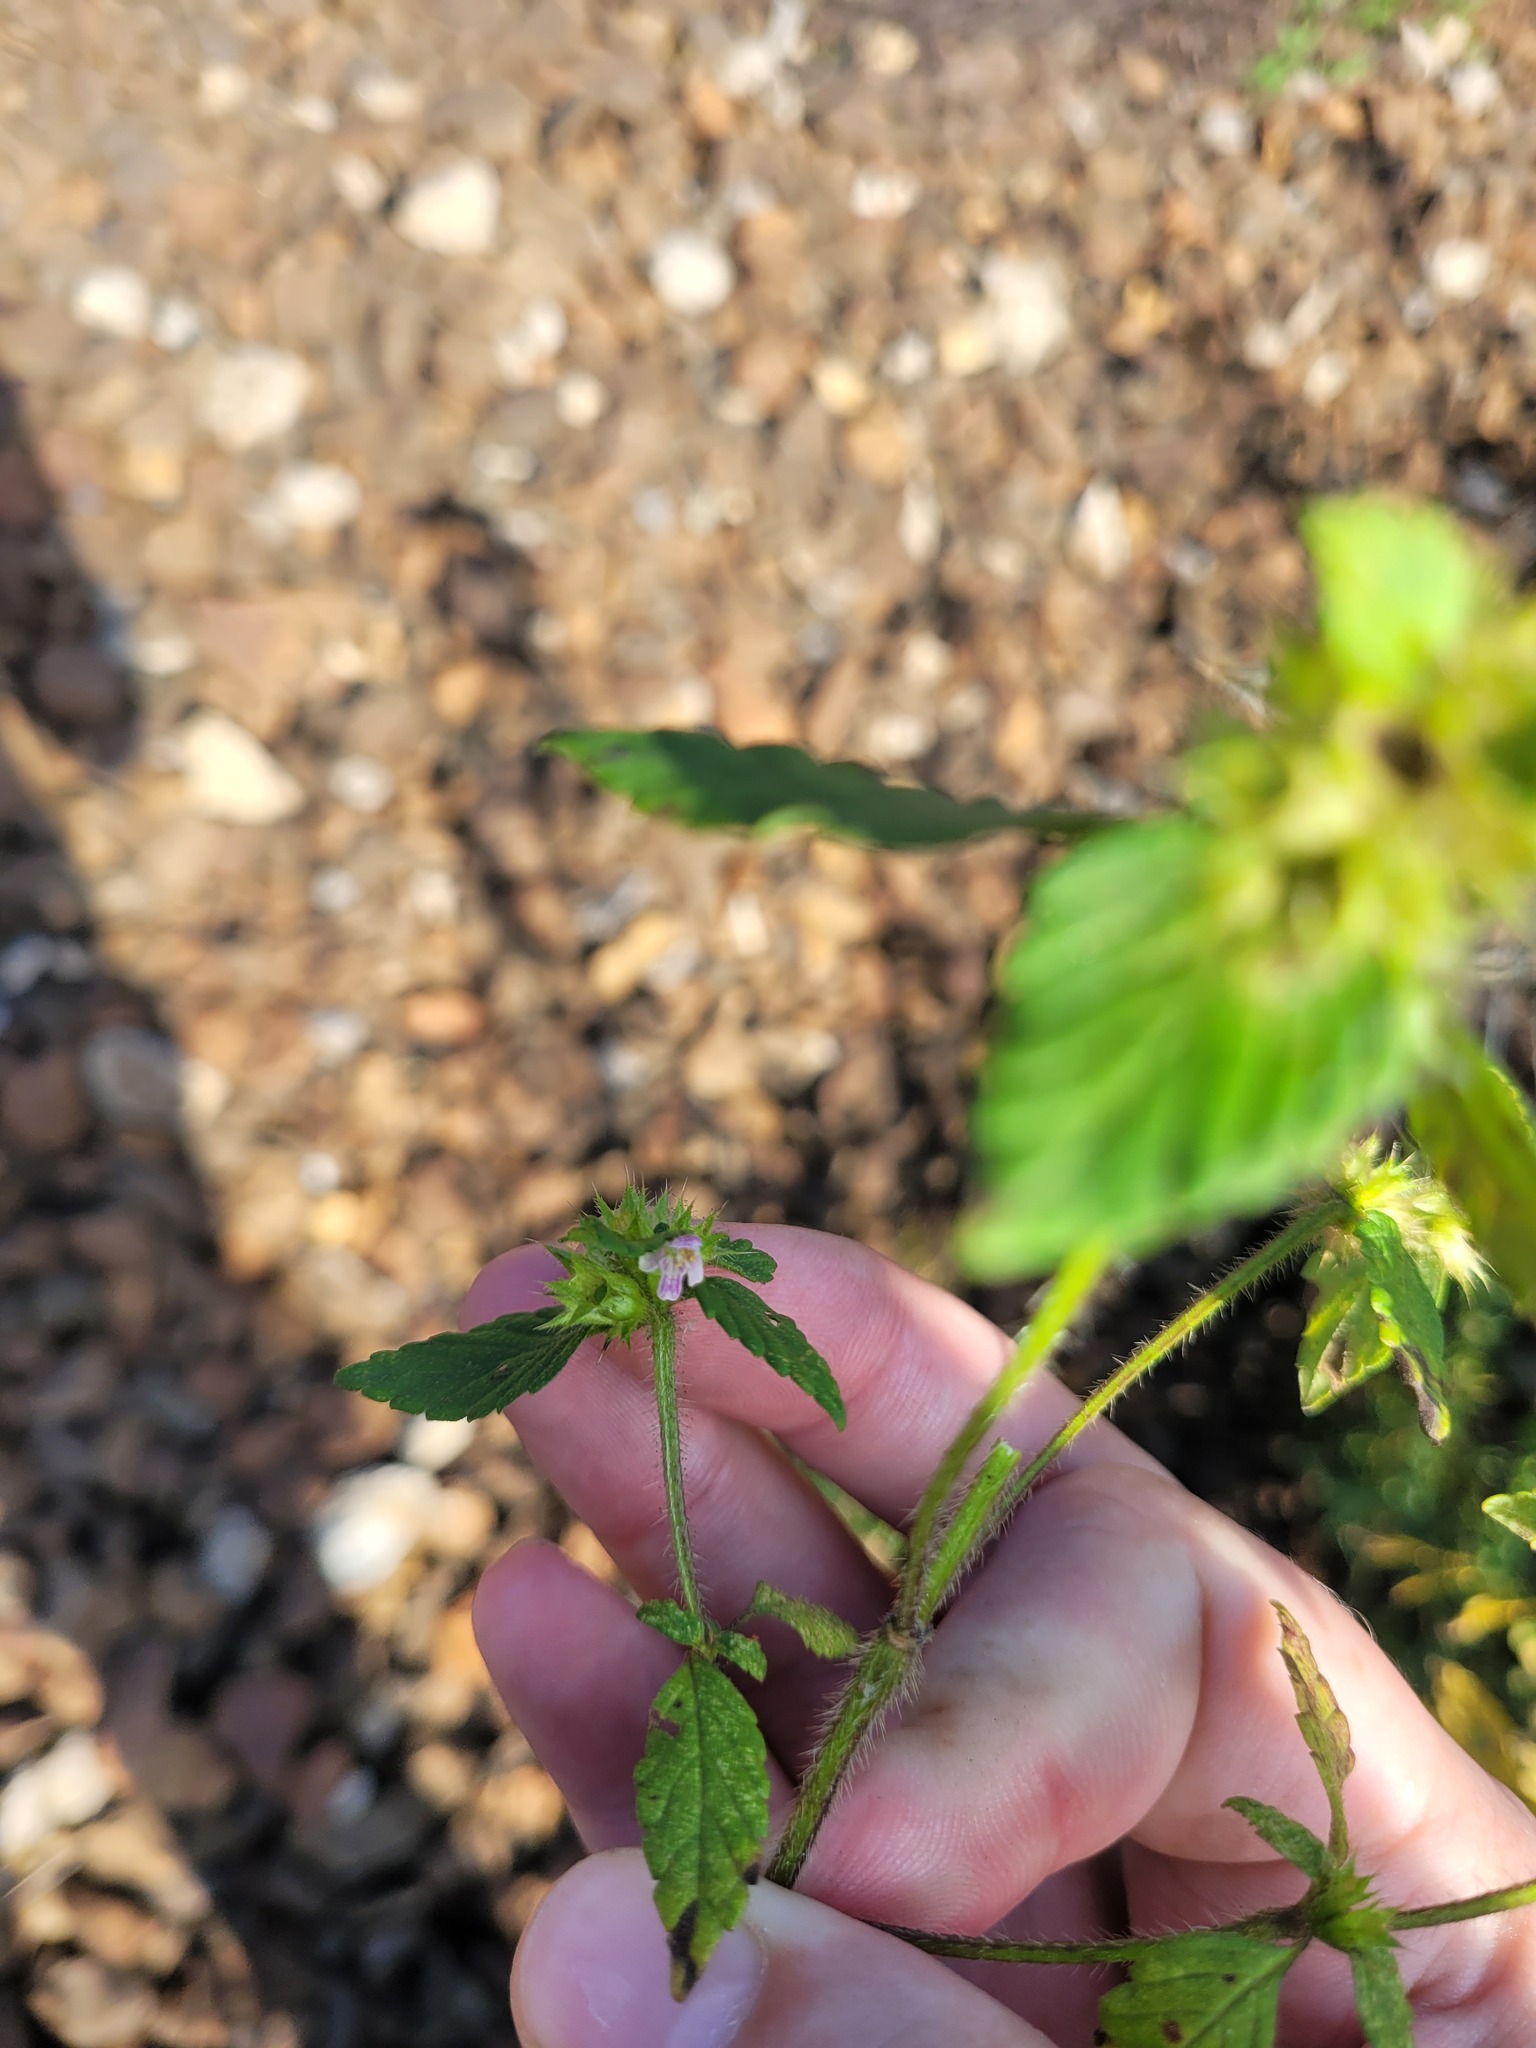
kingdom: Plantae
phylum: Tracheophyta
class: Magnoliopsida
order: Lamiales
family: Lamiaceae
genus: Galeopsis
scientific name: Galeopsis bifida
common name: Bifid hemp-nettle
